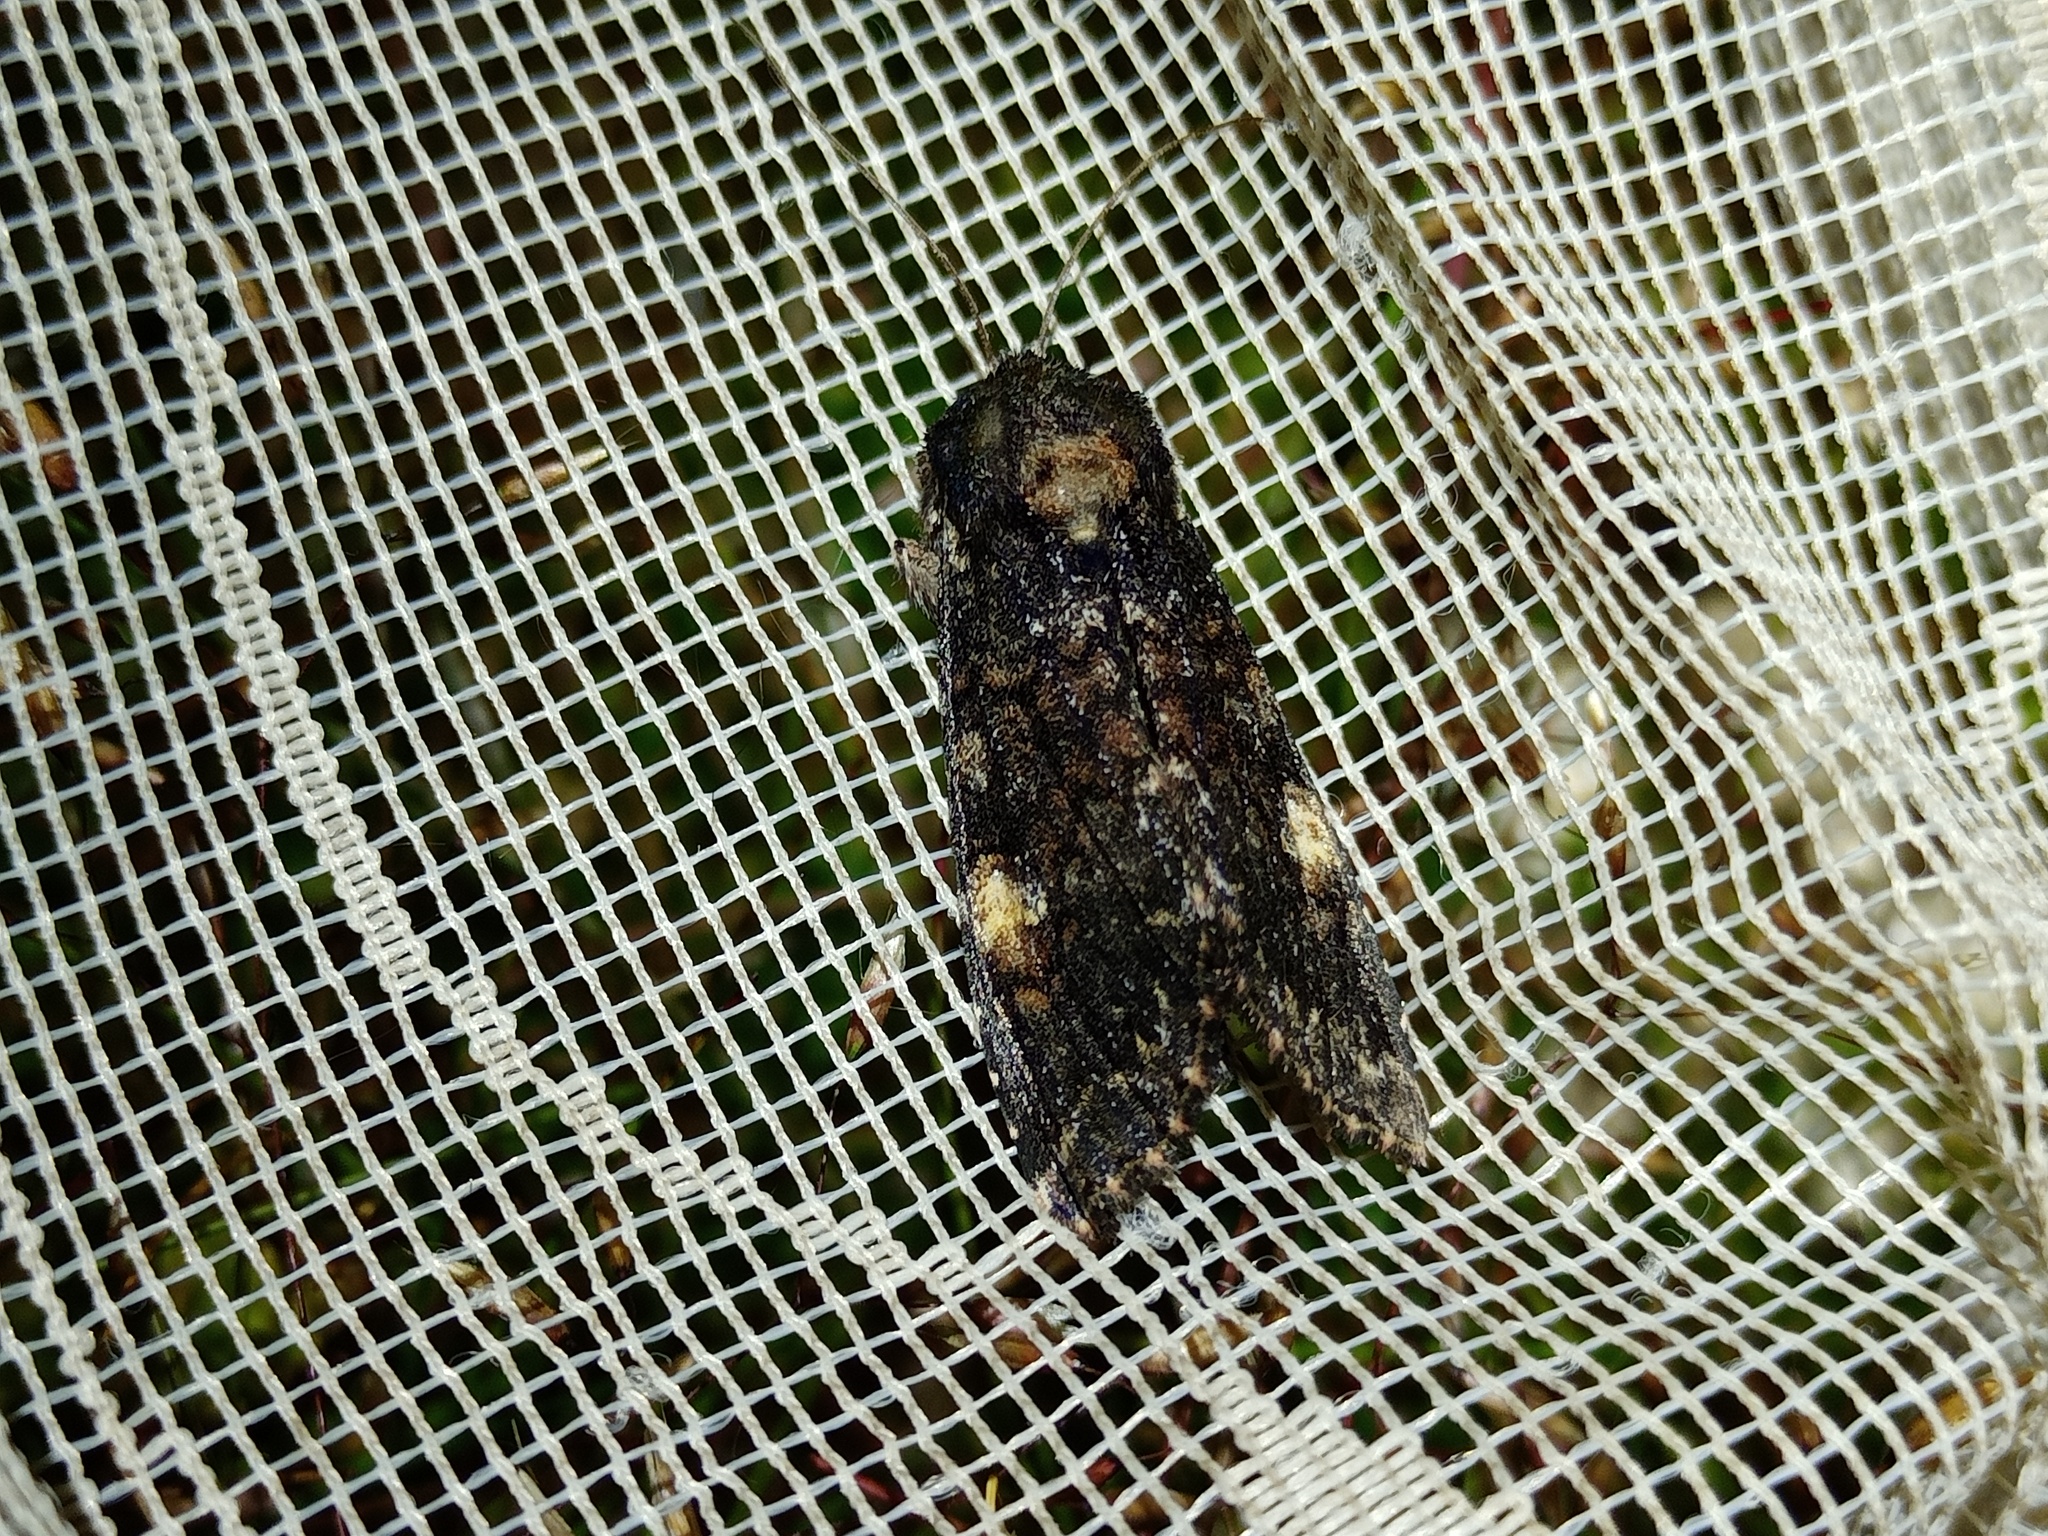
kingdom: Animalia
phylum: Arthropoda
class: Insecta
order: Lepidoptera
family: Noctuidae
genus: Apamea
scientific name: Apamea rubrirena
